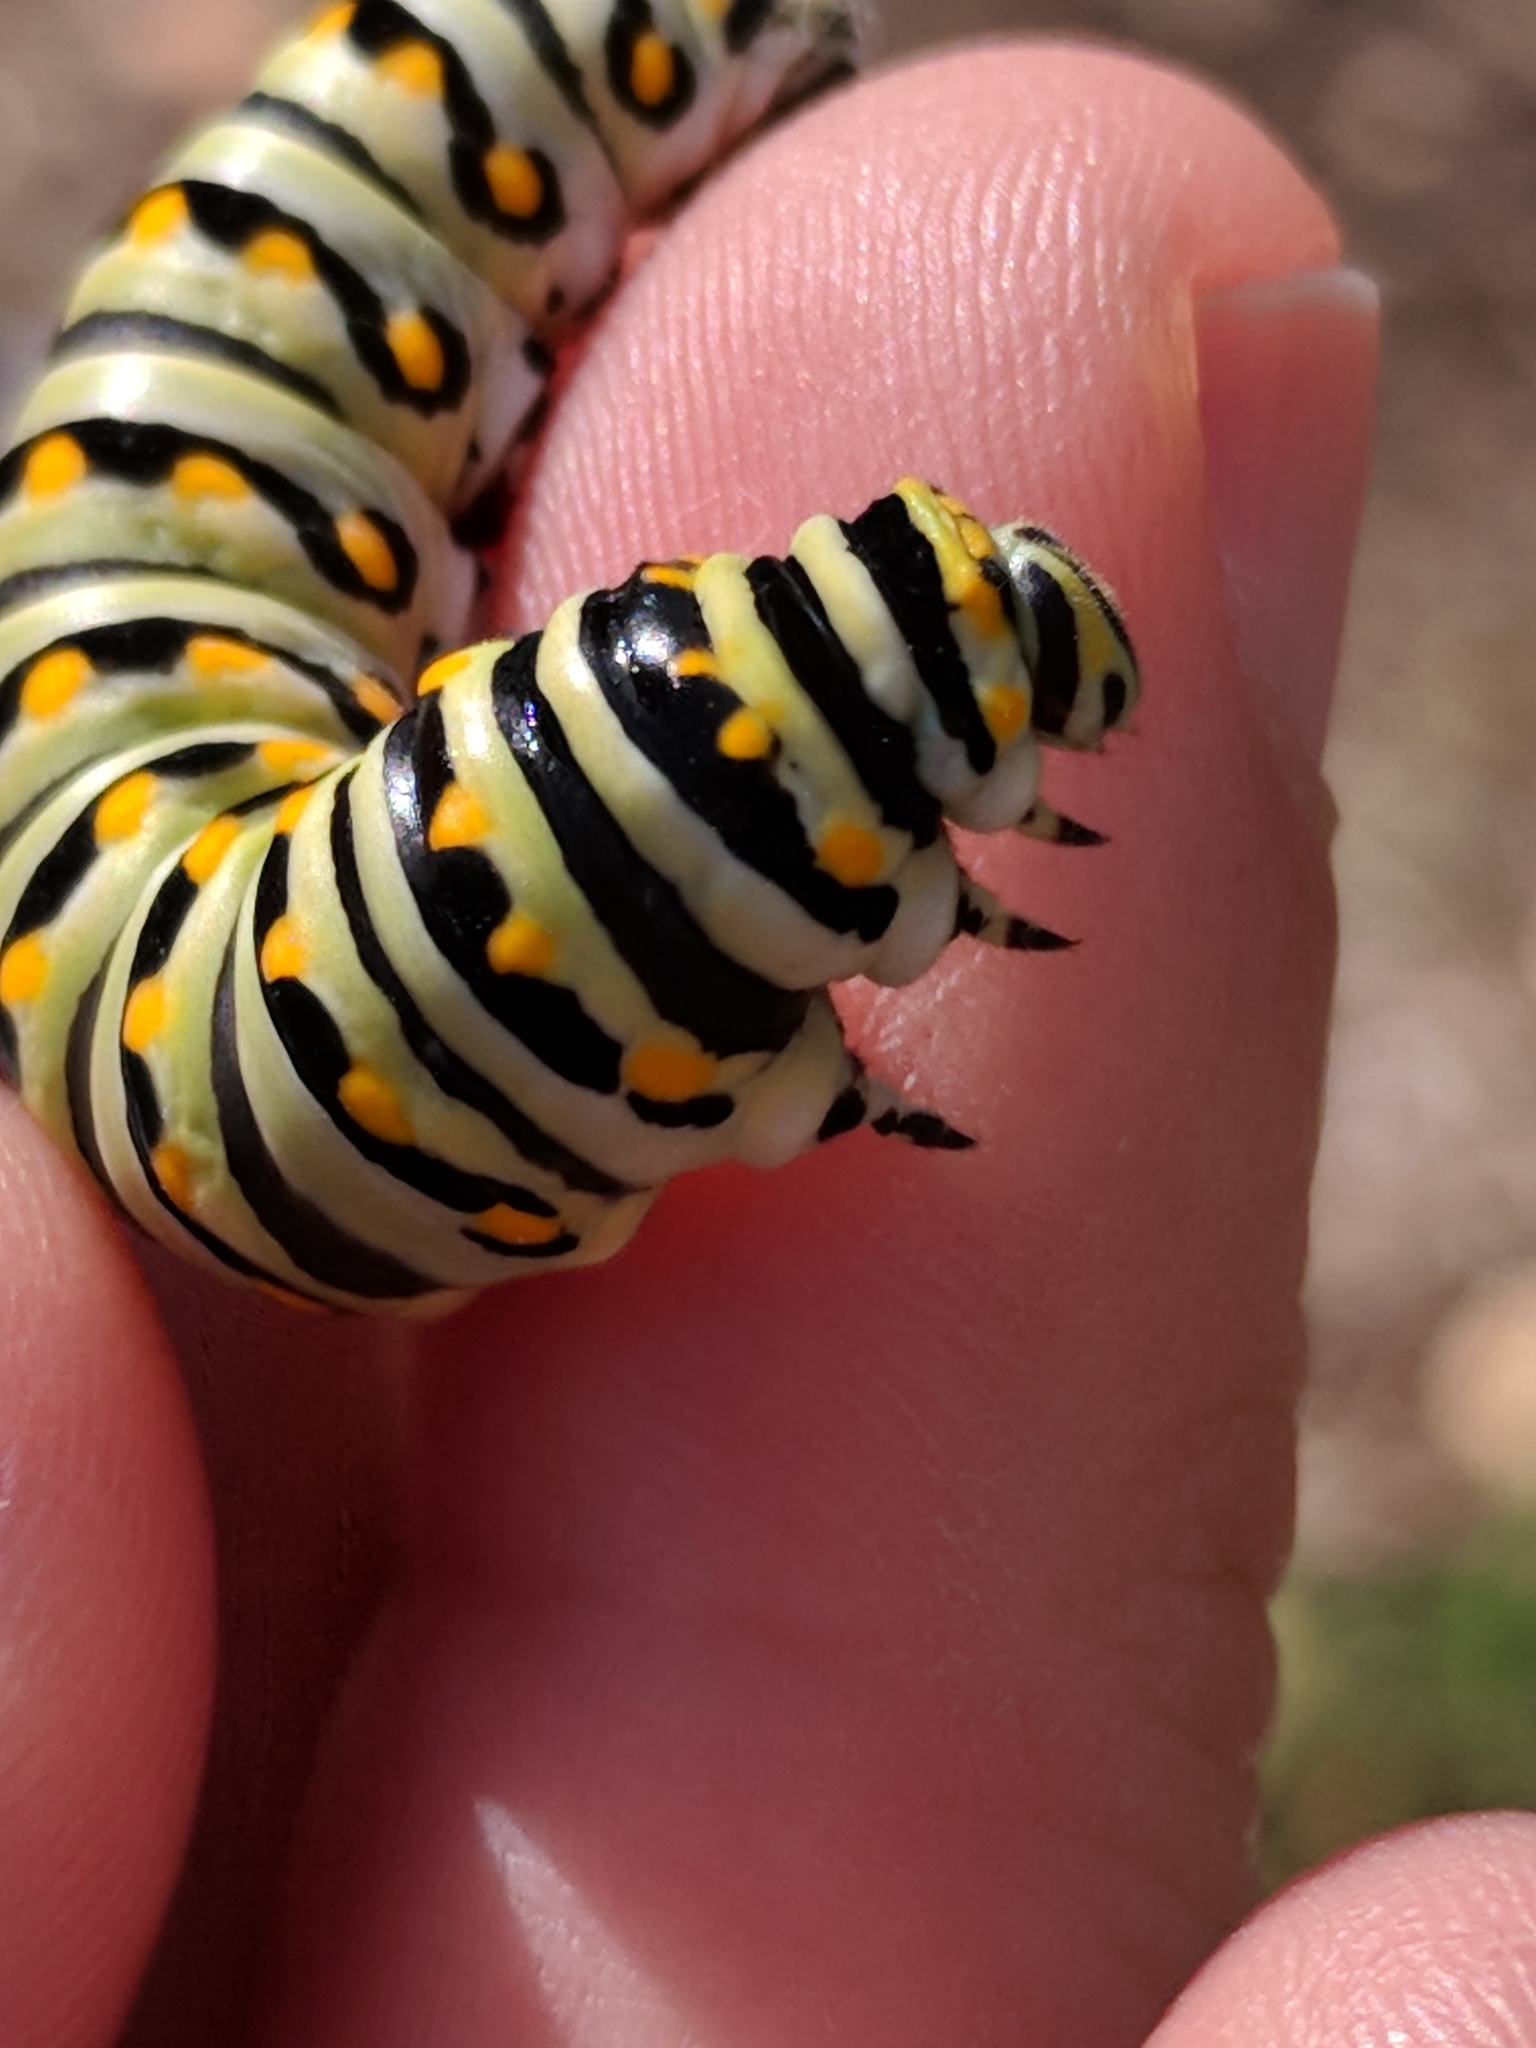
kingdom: Animalia
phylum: Arthropoda
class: Insecta
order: Lepidoptera
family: Papilionidae
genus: Papilio
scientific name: Papilio polyxenes
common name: Black swallowtail
